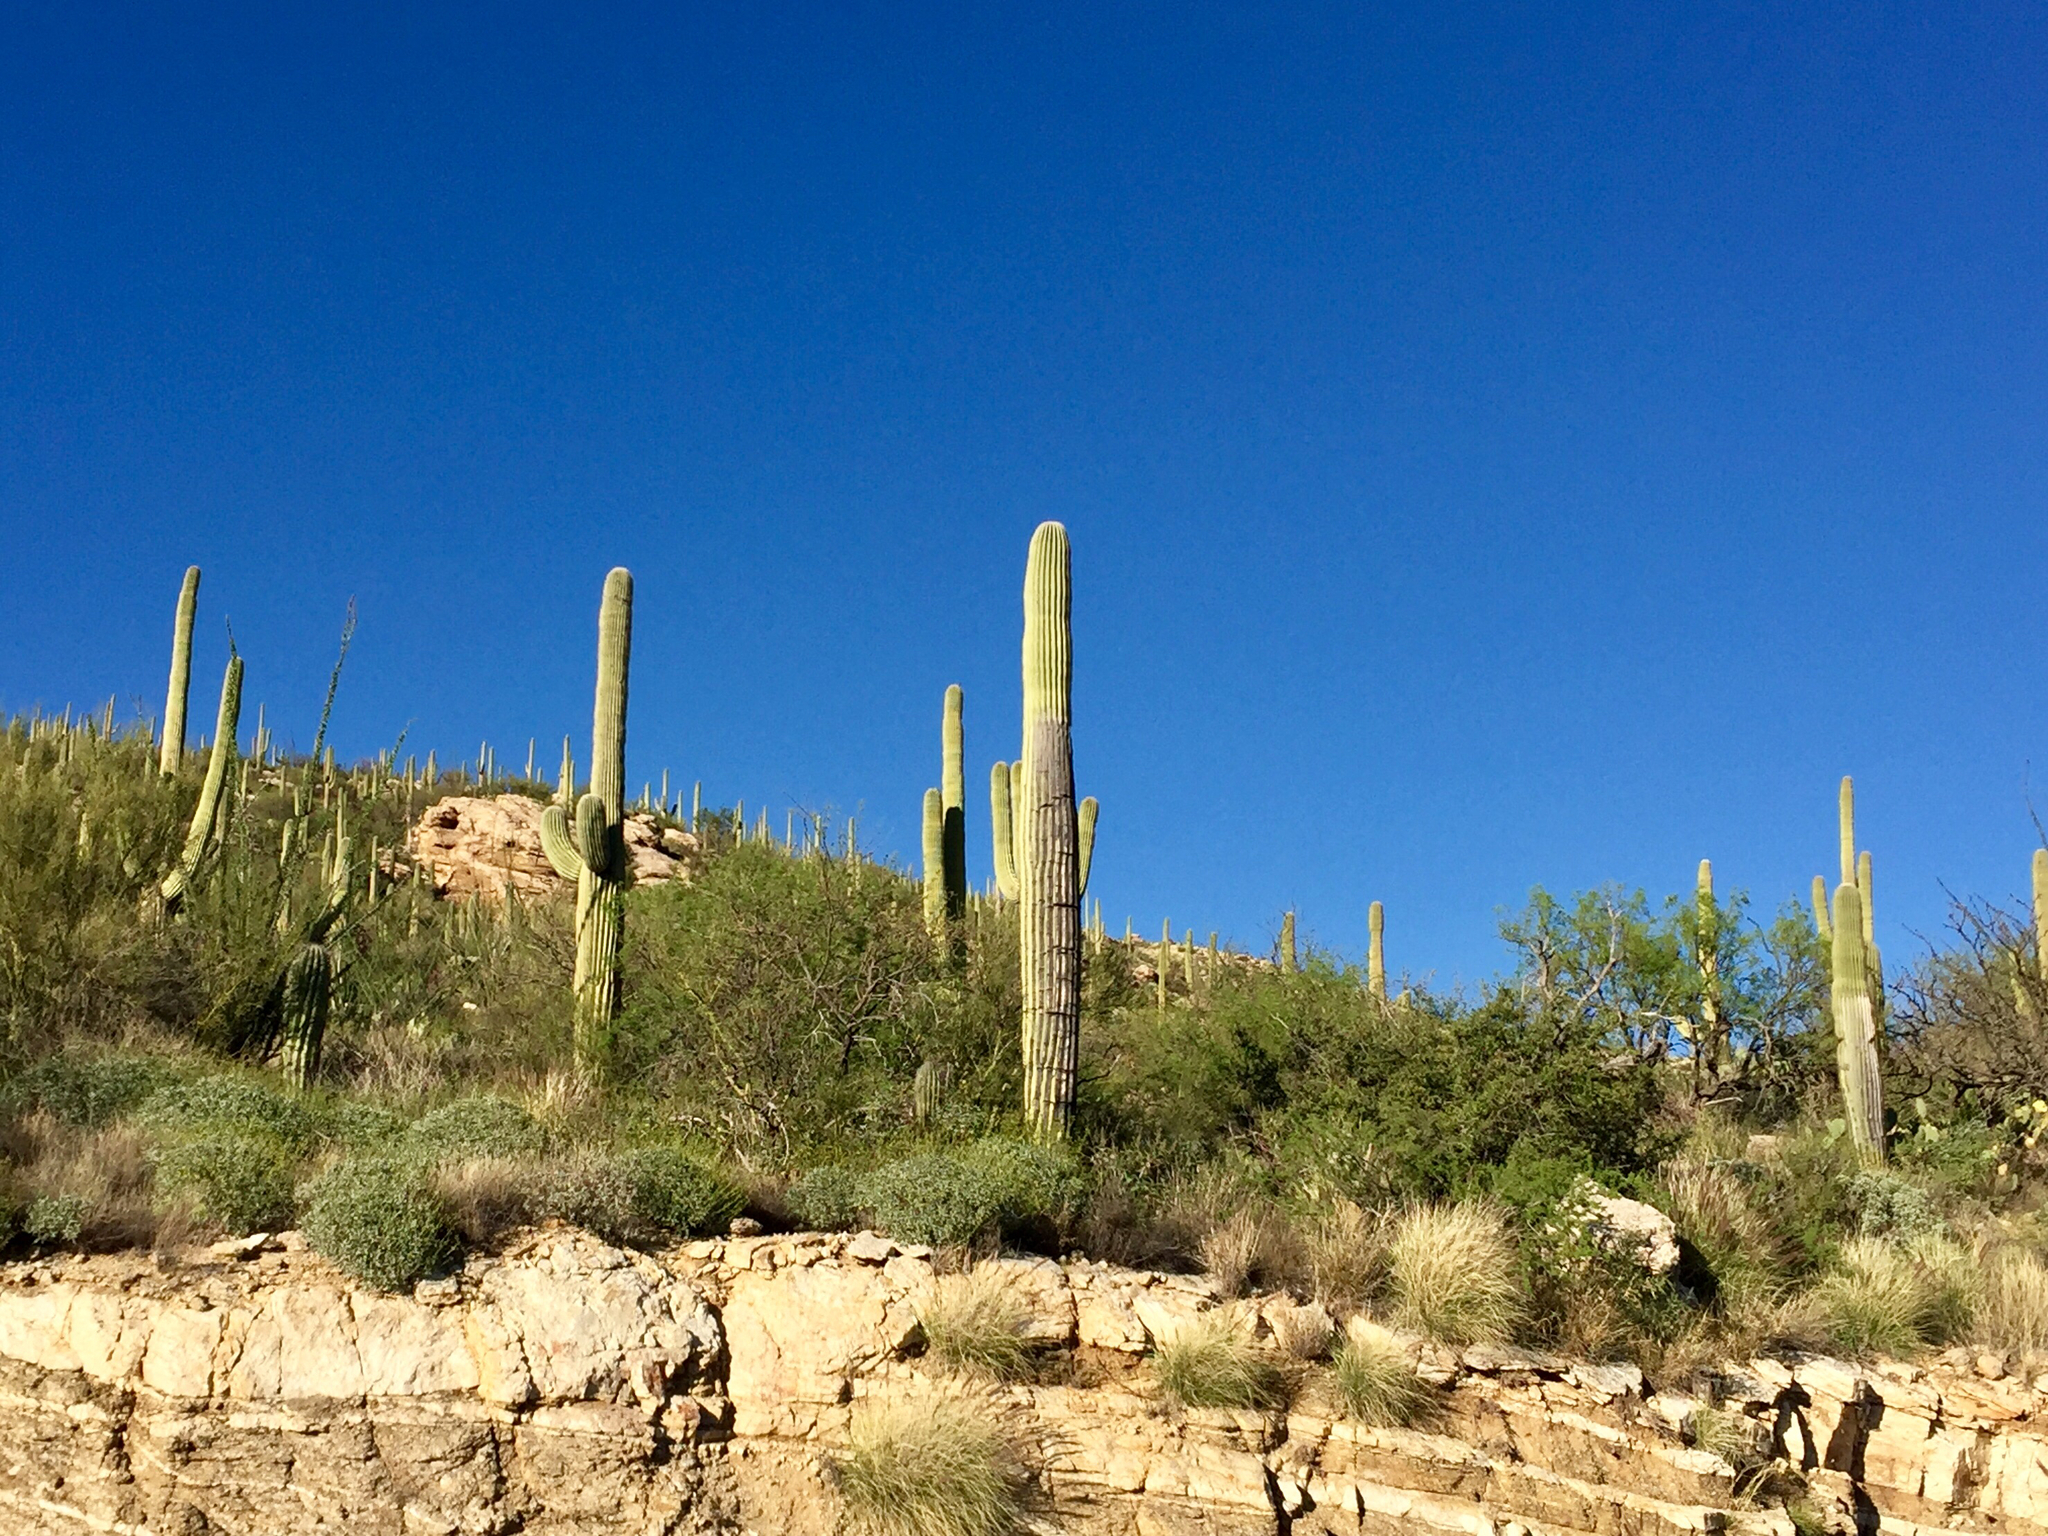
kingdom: Plantae
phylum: Tracheophyta
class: Magnoliopsida
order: Caryophyllales
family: Cactaceae
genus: Carnegiea
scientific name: Carnegiea gigantea
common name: Saguaro
